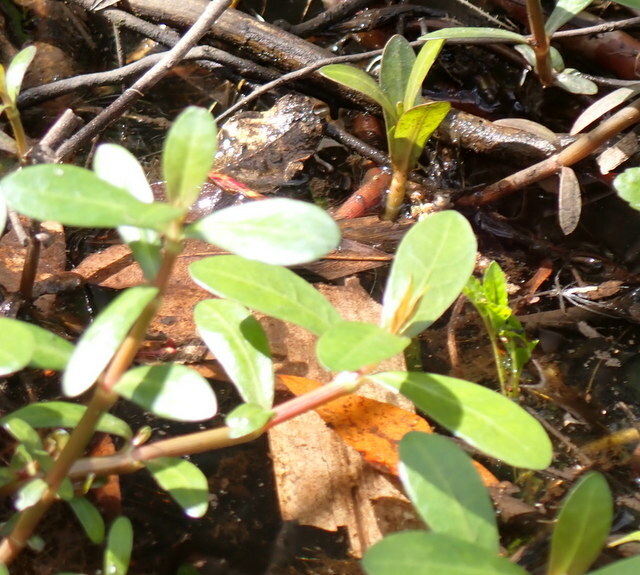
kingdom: Plantae
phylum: Tracheophyta
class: Magnoliopsida
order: Caryophyllales
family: Amaranthaceae
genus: Alternanthera
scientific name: Alternanthera philoxeroides
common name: Alligatorweed
